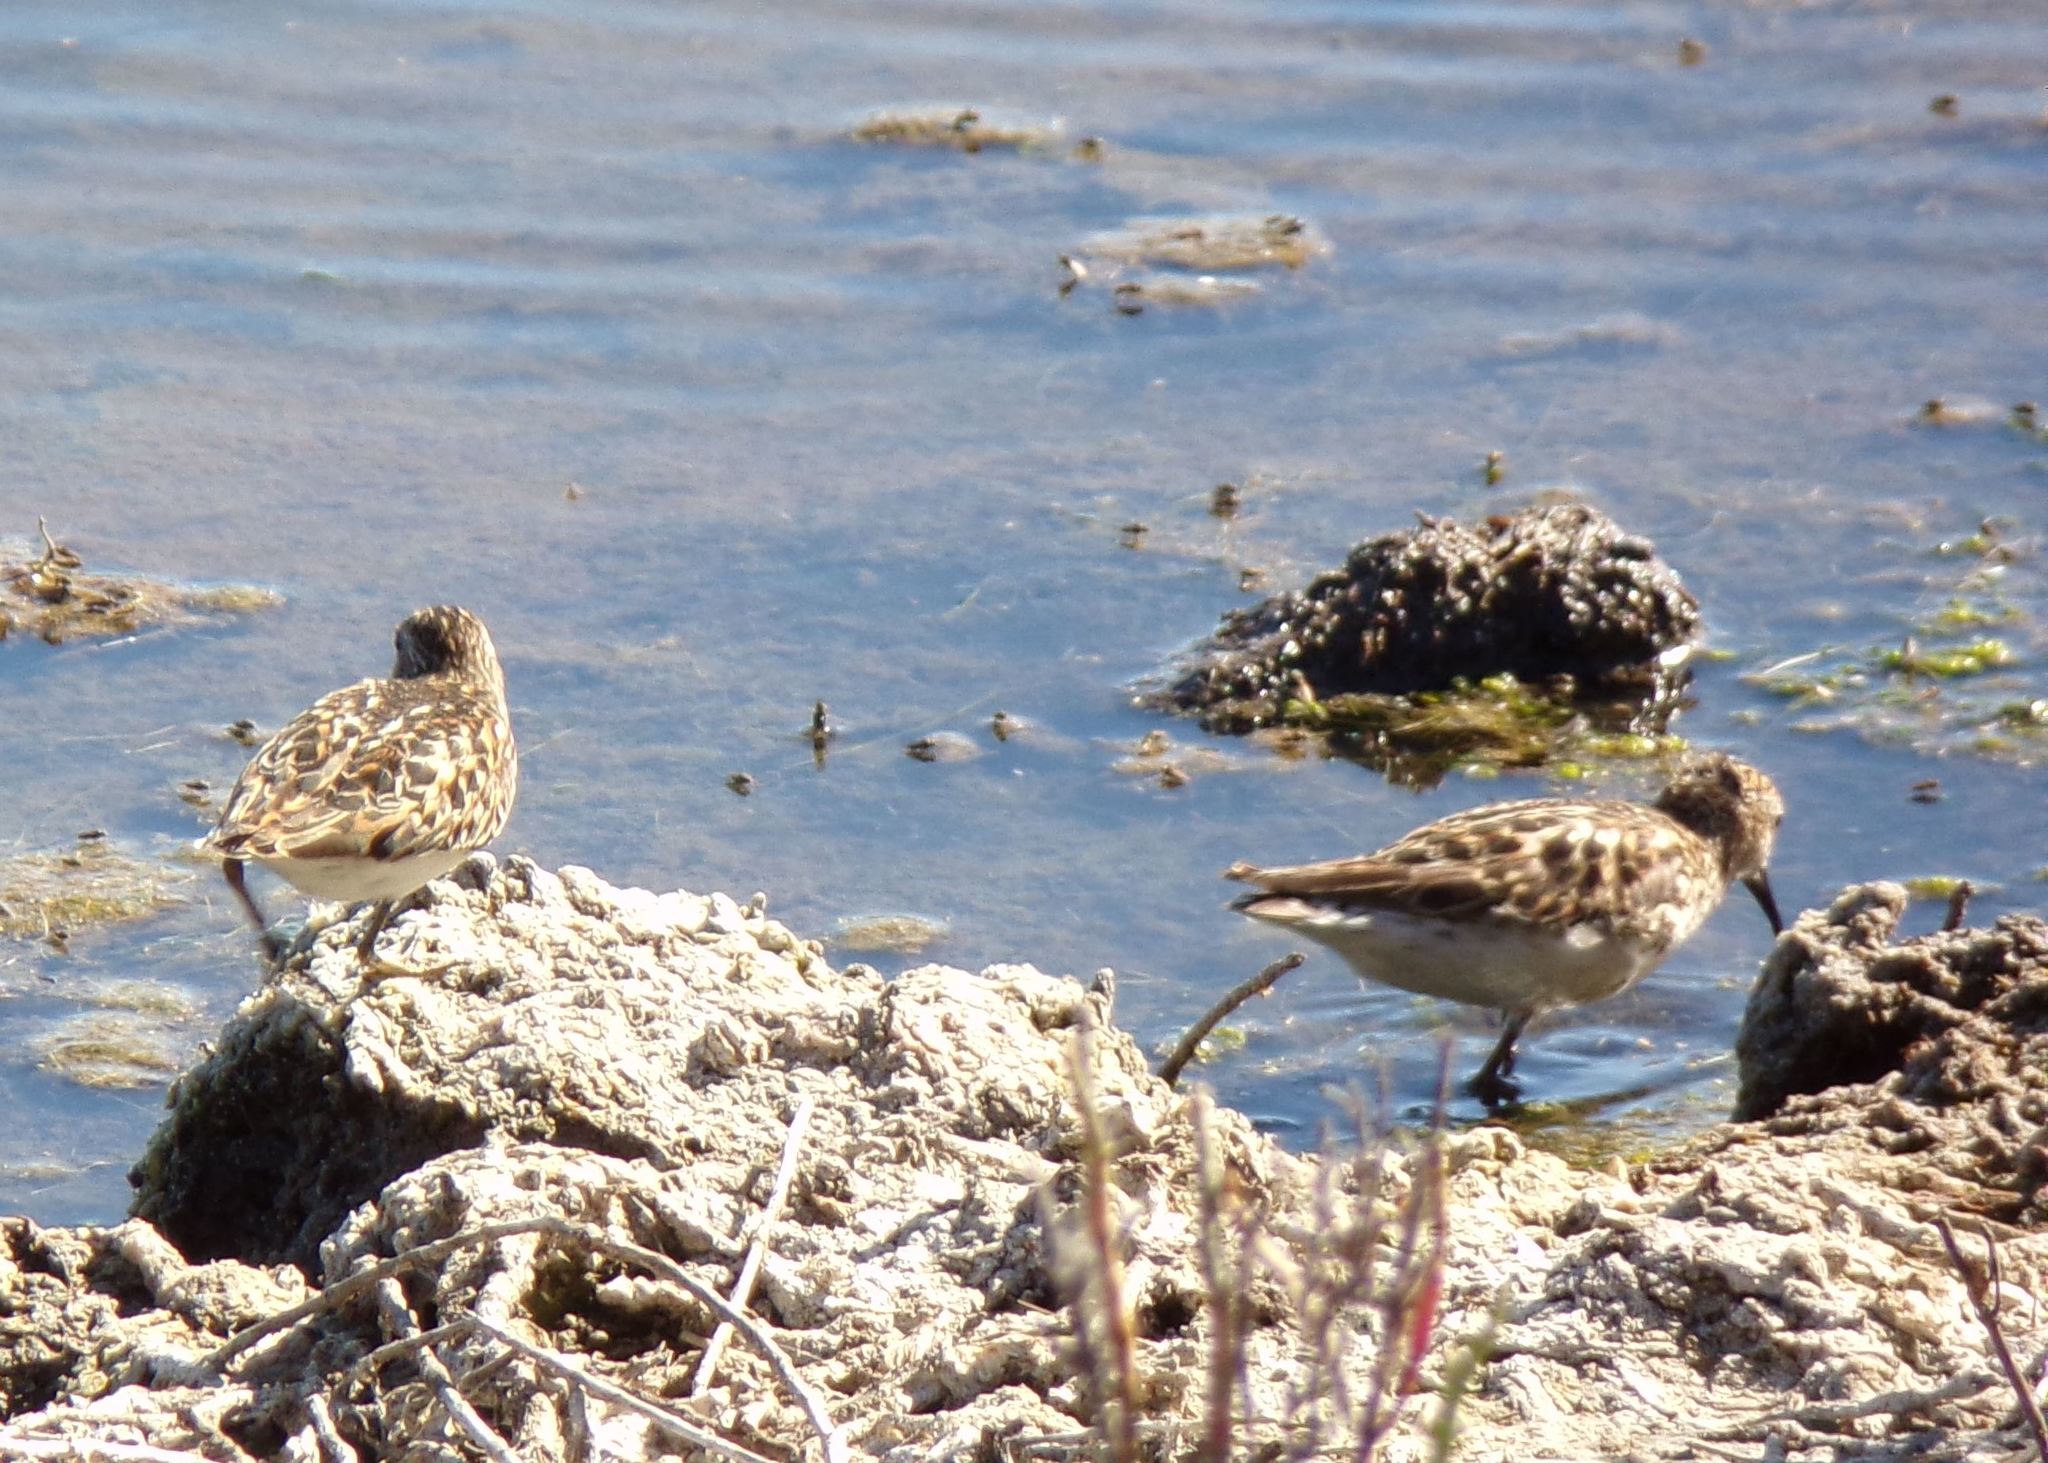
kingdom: Animalia
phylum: Chordata
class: Aves
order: Charadriiformes
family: Scolopacidae
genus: Calidris
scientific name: Calidris minutilla
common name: Least sandpiper
